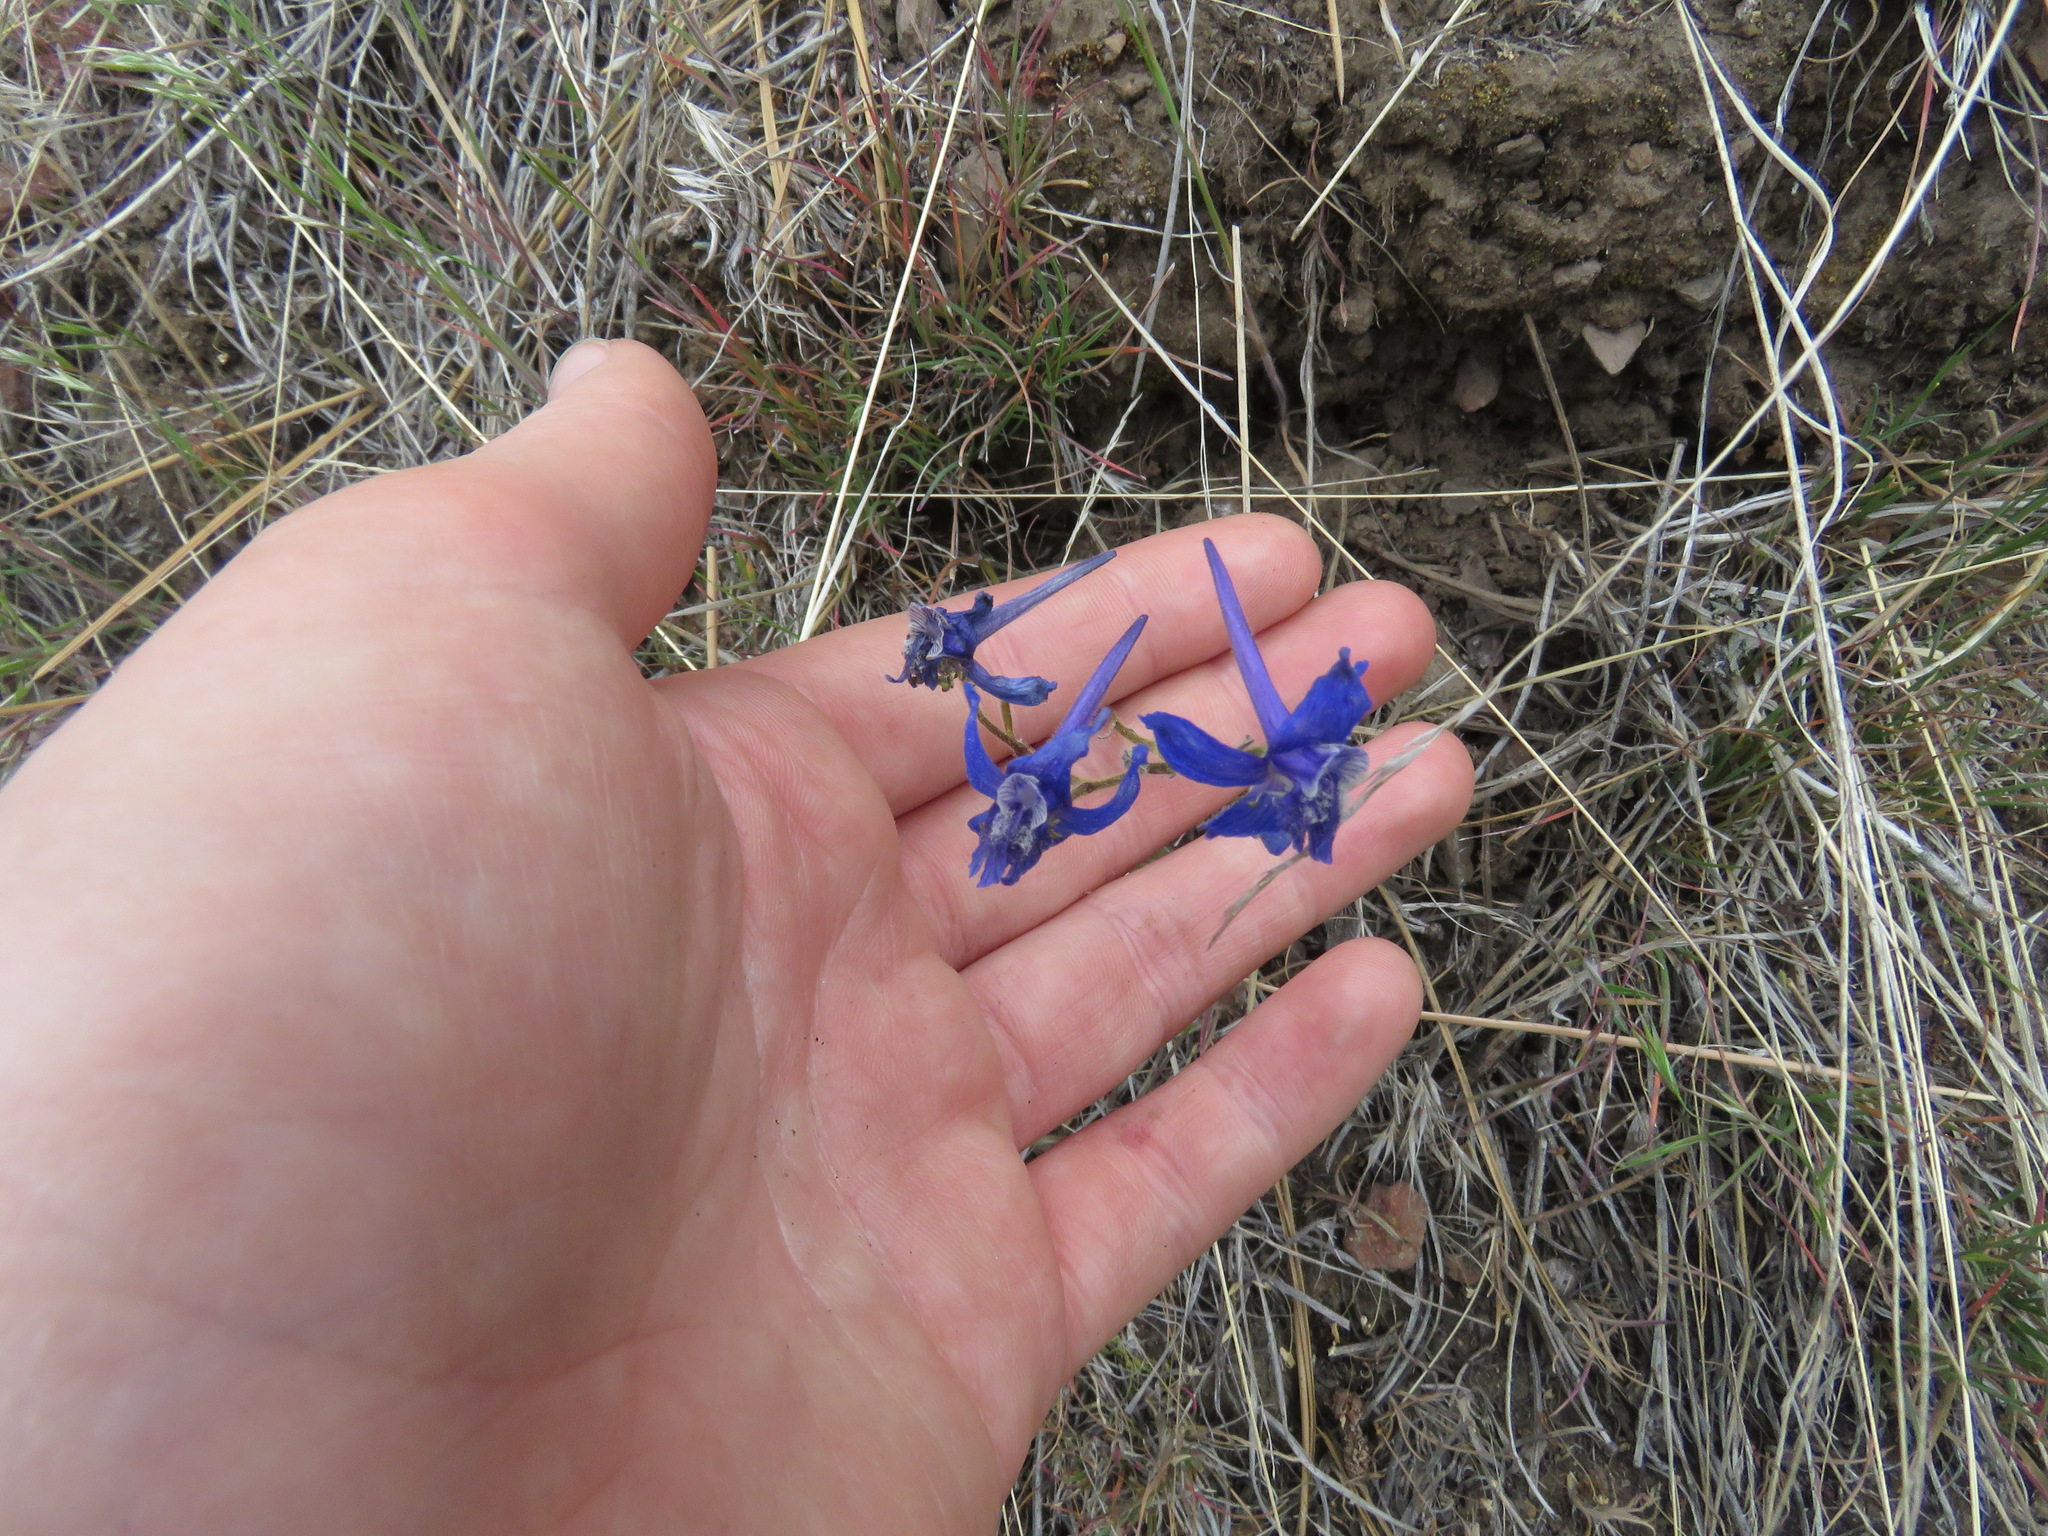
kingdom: Plantae
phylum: Tracheophyta
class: Magnoliopsida
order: Ranunculales
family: Ranunculaceae
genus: Delphinium
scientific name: Delphinium nuttallianum
